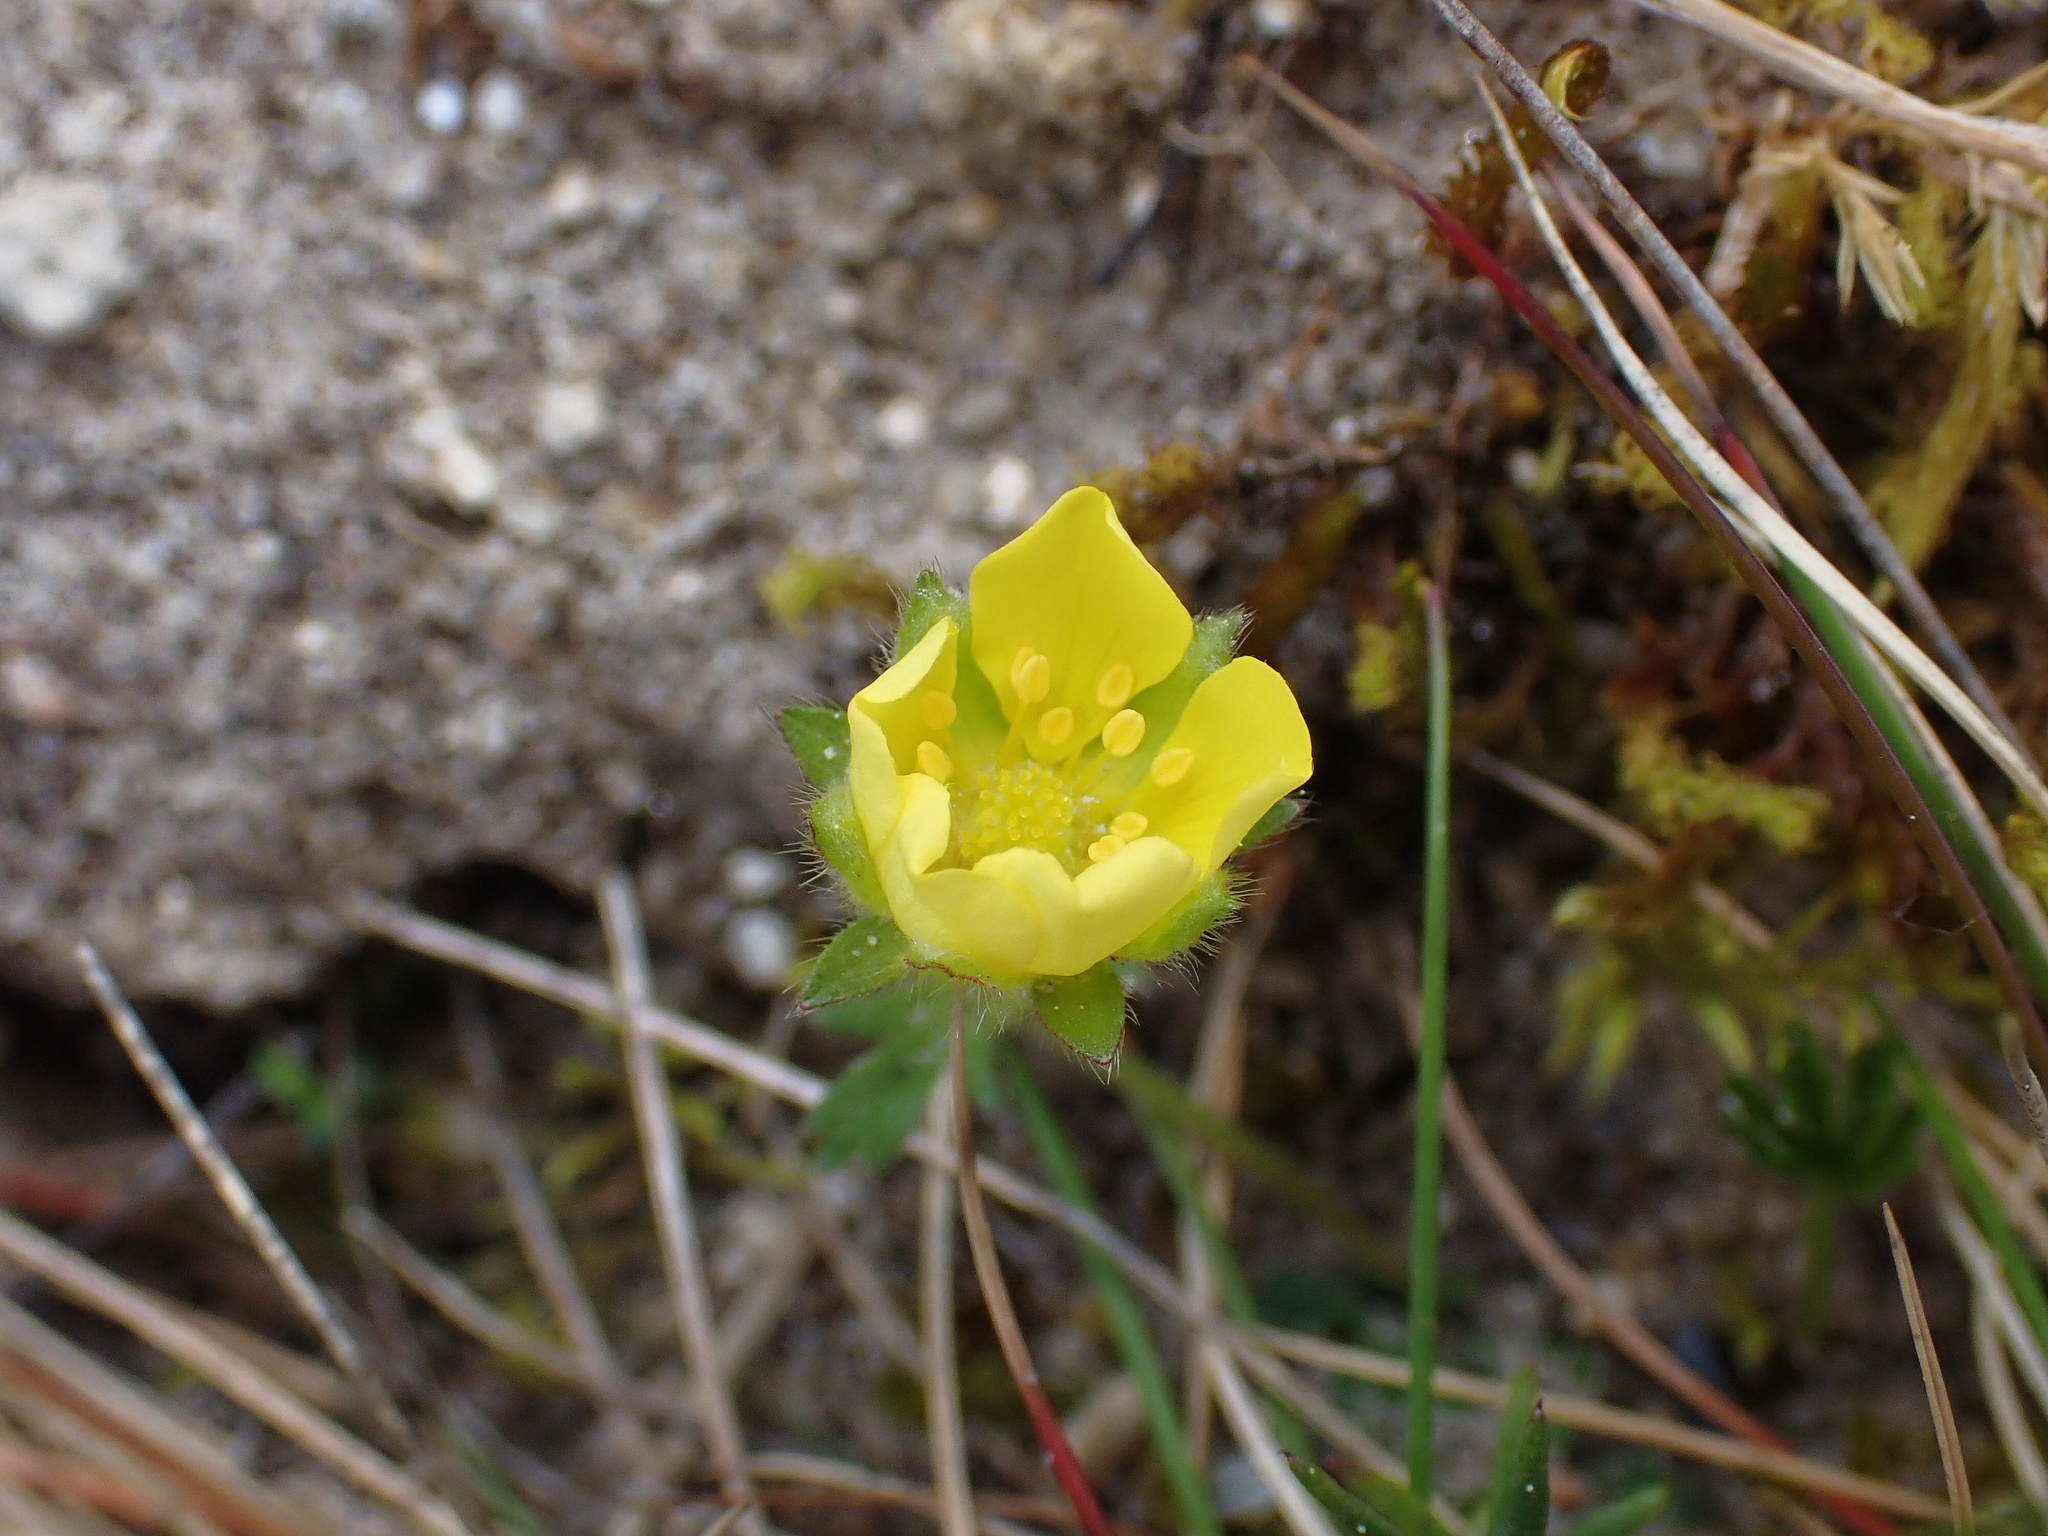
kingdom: Plantae
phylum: Tracheophyta
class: Magnoliopsida
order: Rosales
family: Rosaceae
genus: Potentilla
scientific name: Potentilla verna
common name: Spring cinquefoil
